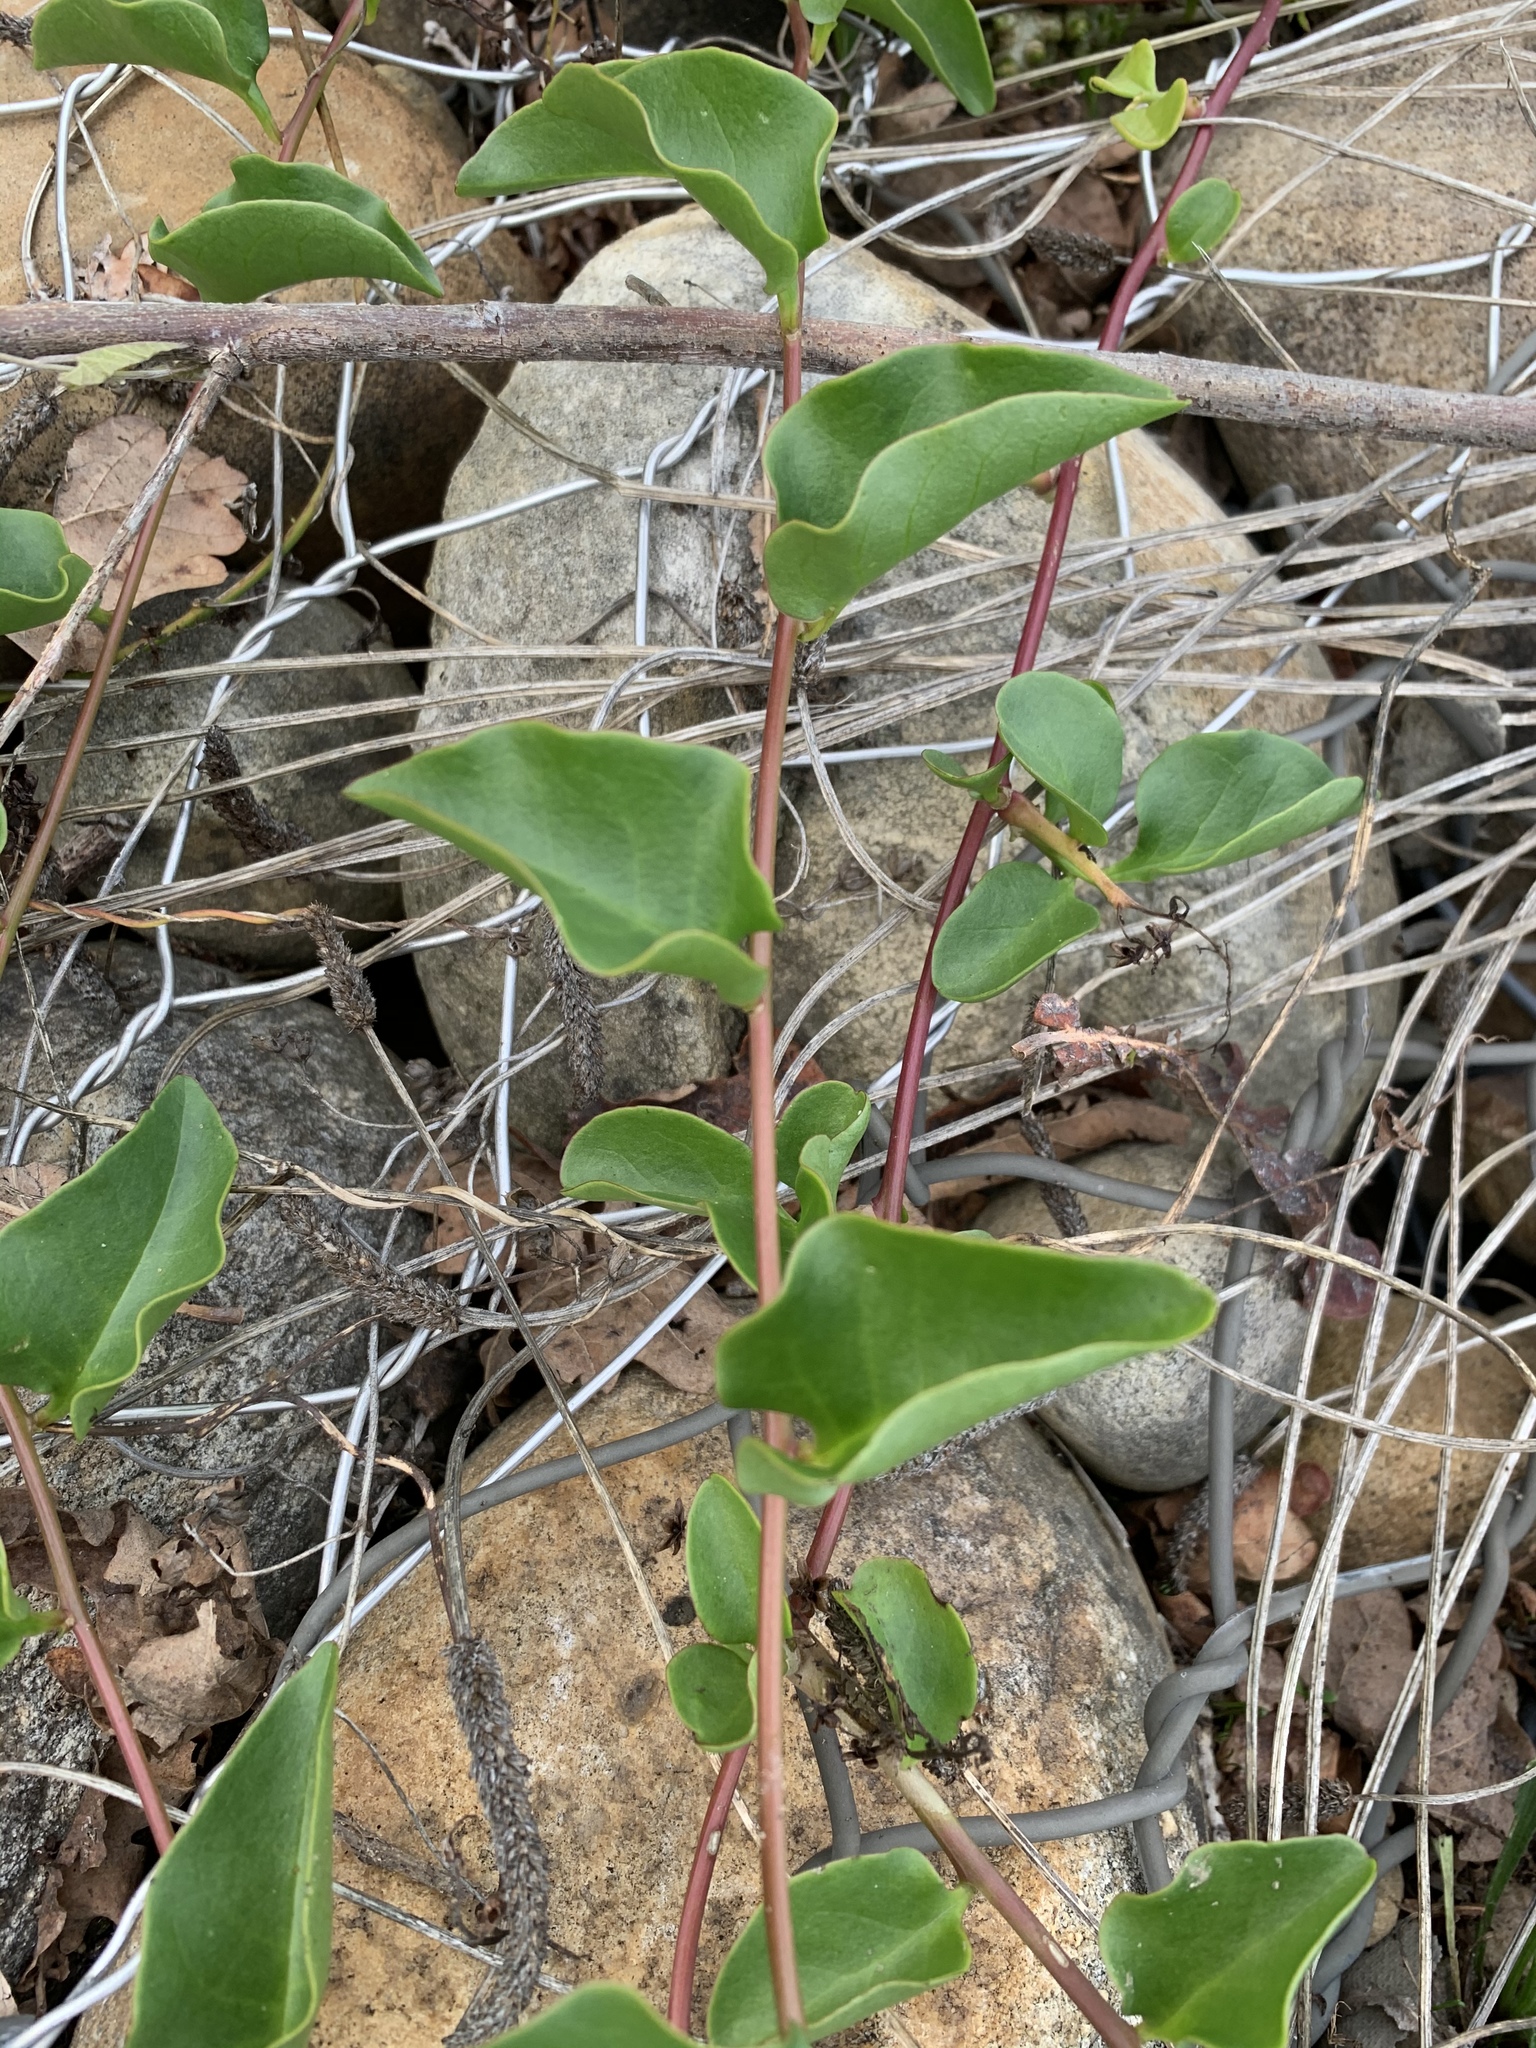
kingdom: Plantae
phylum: Tracheophyta
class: Magnoliopsida
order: Caryophyllales
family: Basellaceae
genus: Anredera
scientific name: Anredera cordifolia
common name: Heartleaf madeiravine
